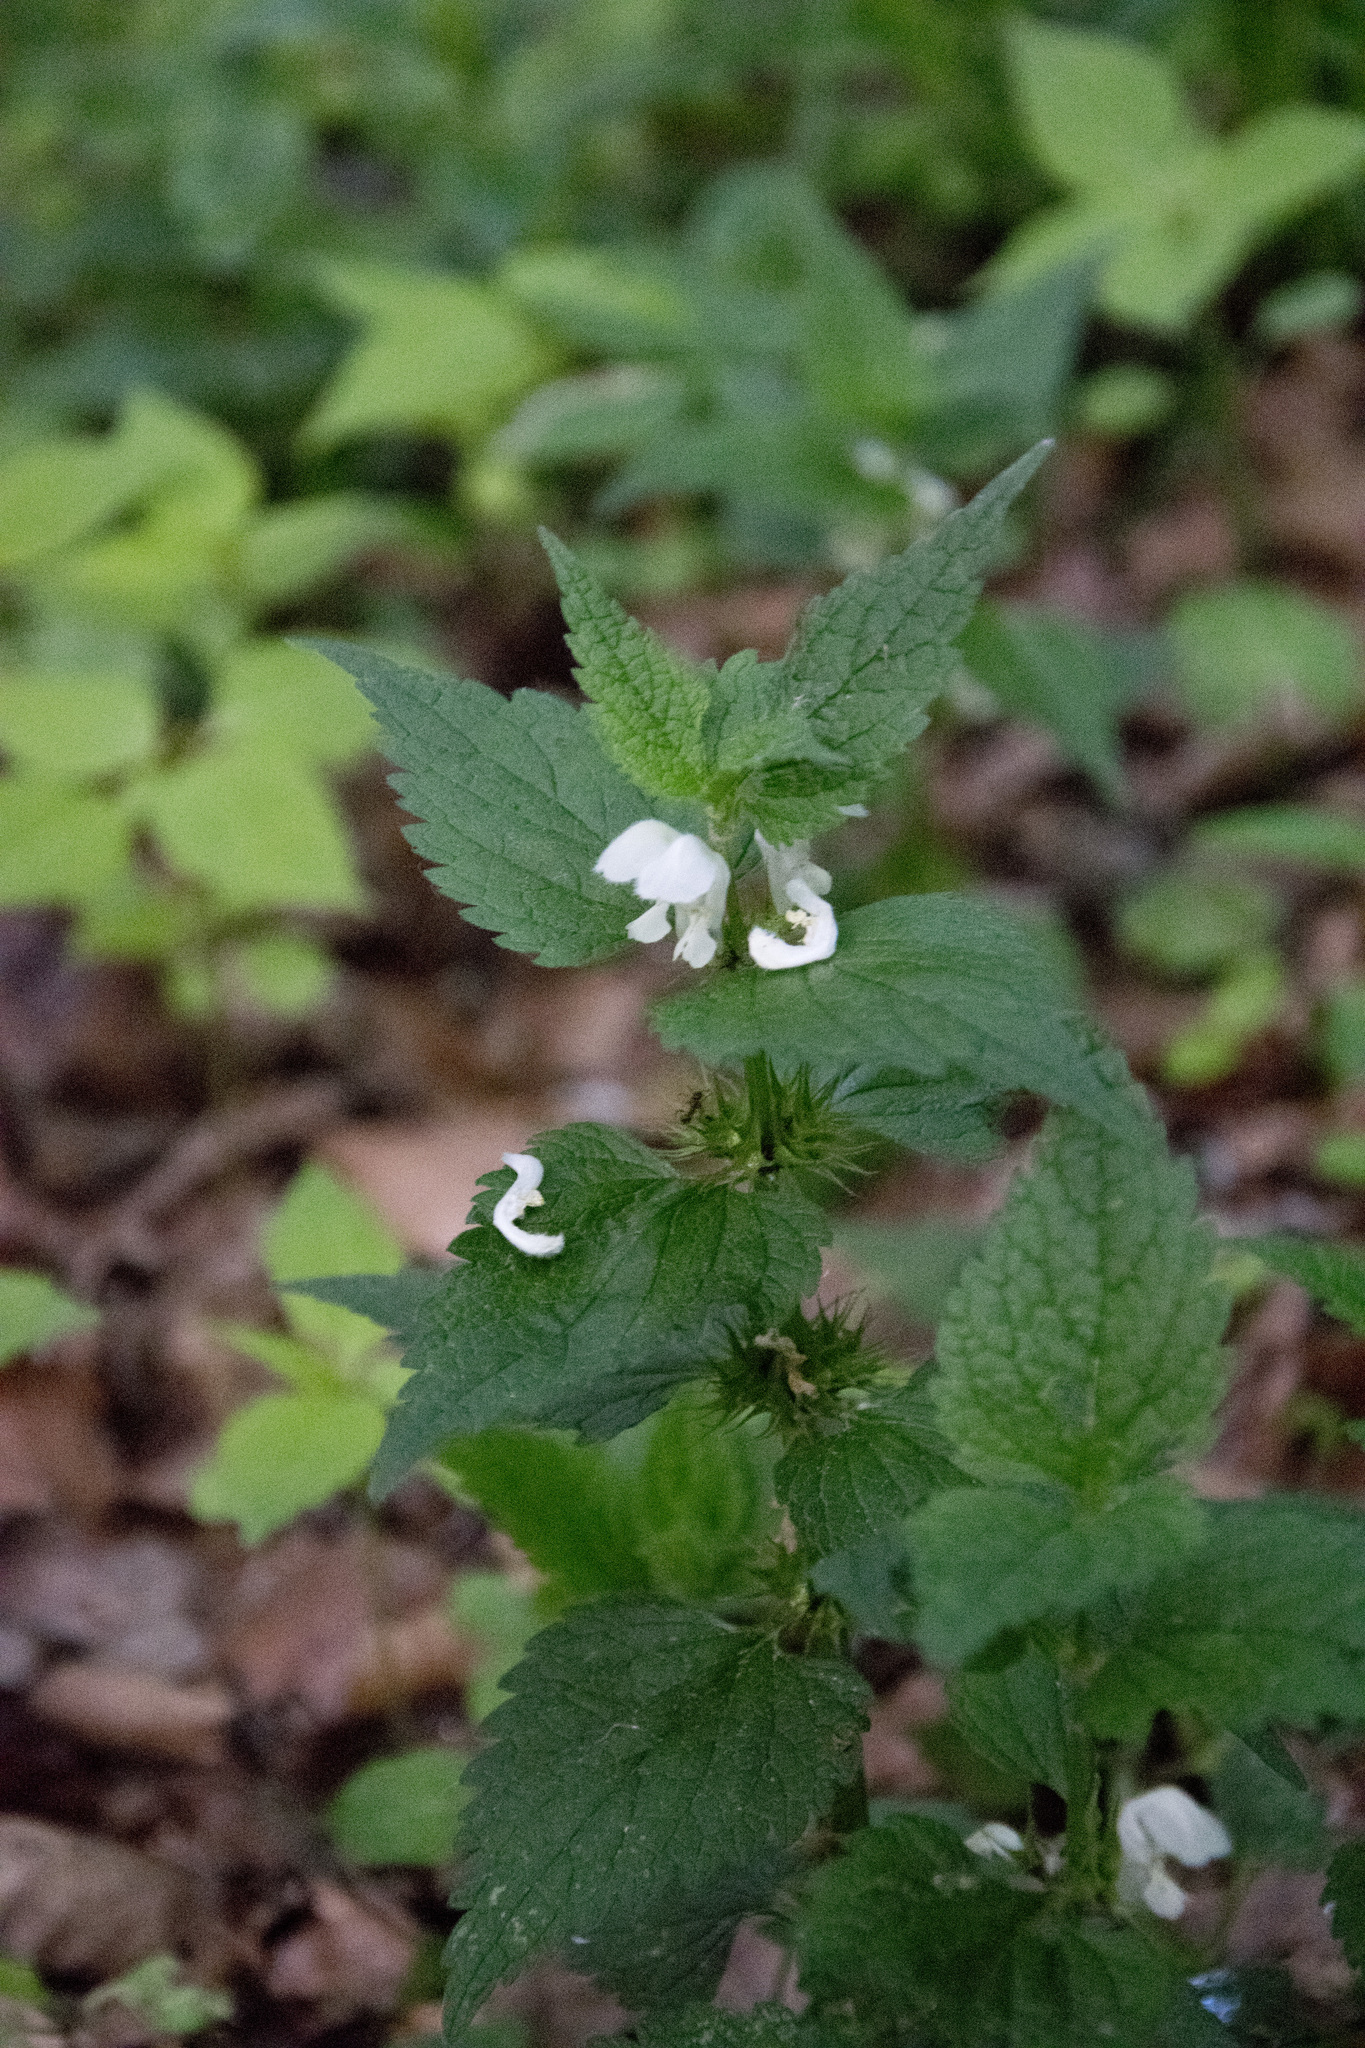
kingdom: Plantae
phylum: Tracheophyta
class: Magnoliopsida
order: Lamiales
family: Lamiaceae
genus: Lamium
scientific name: Lamium album
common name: White dead-nettle
